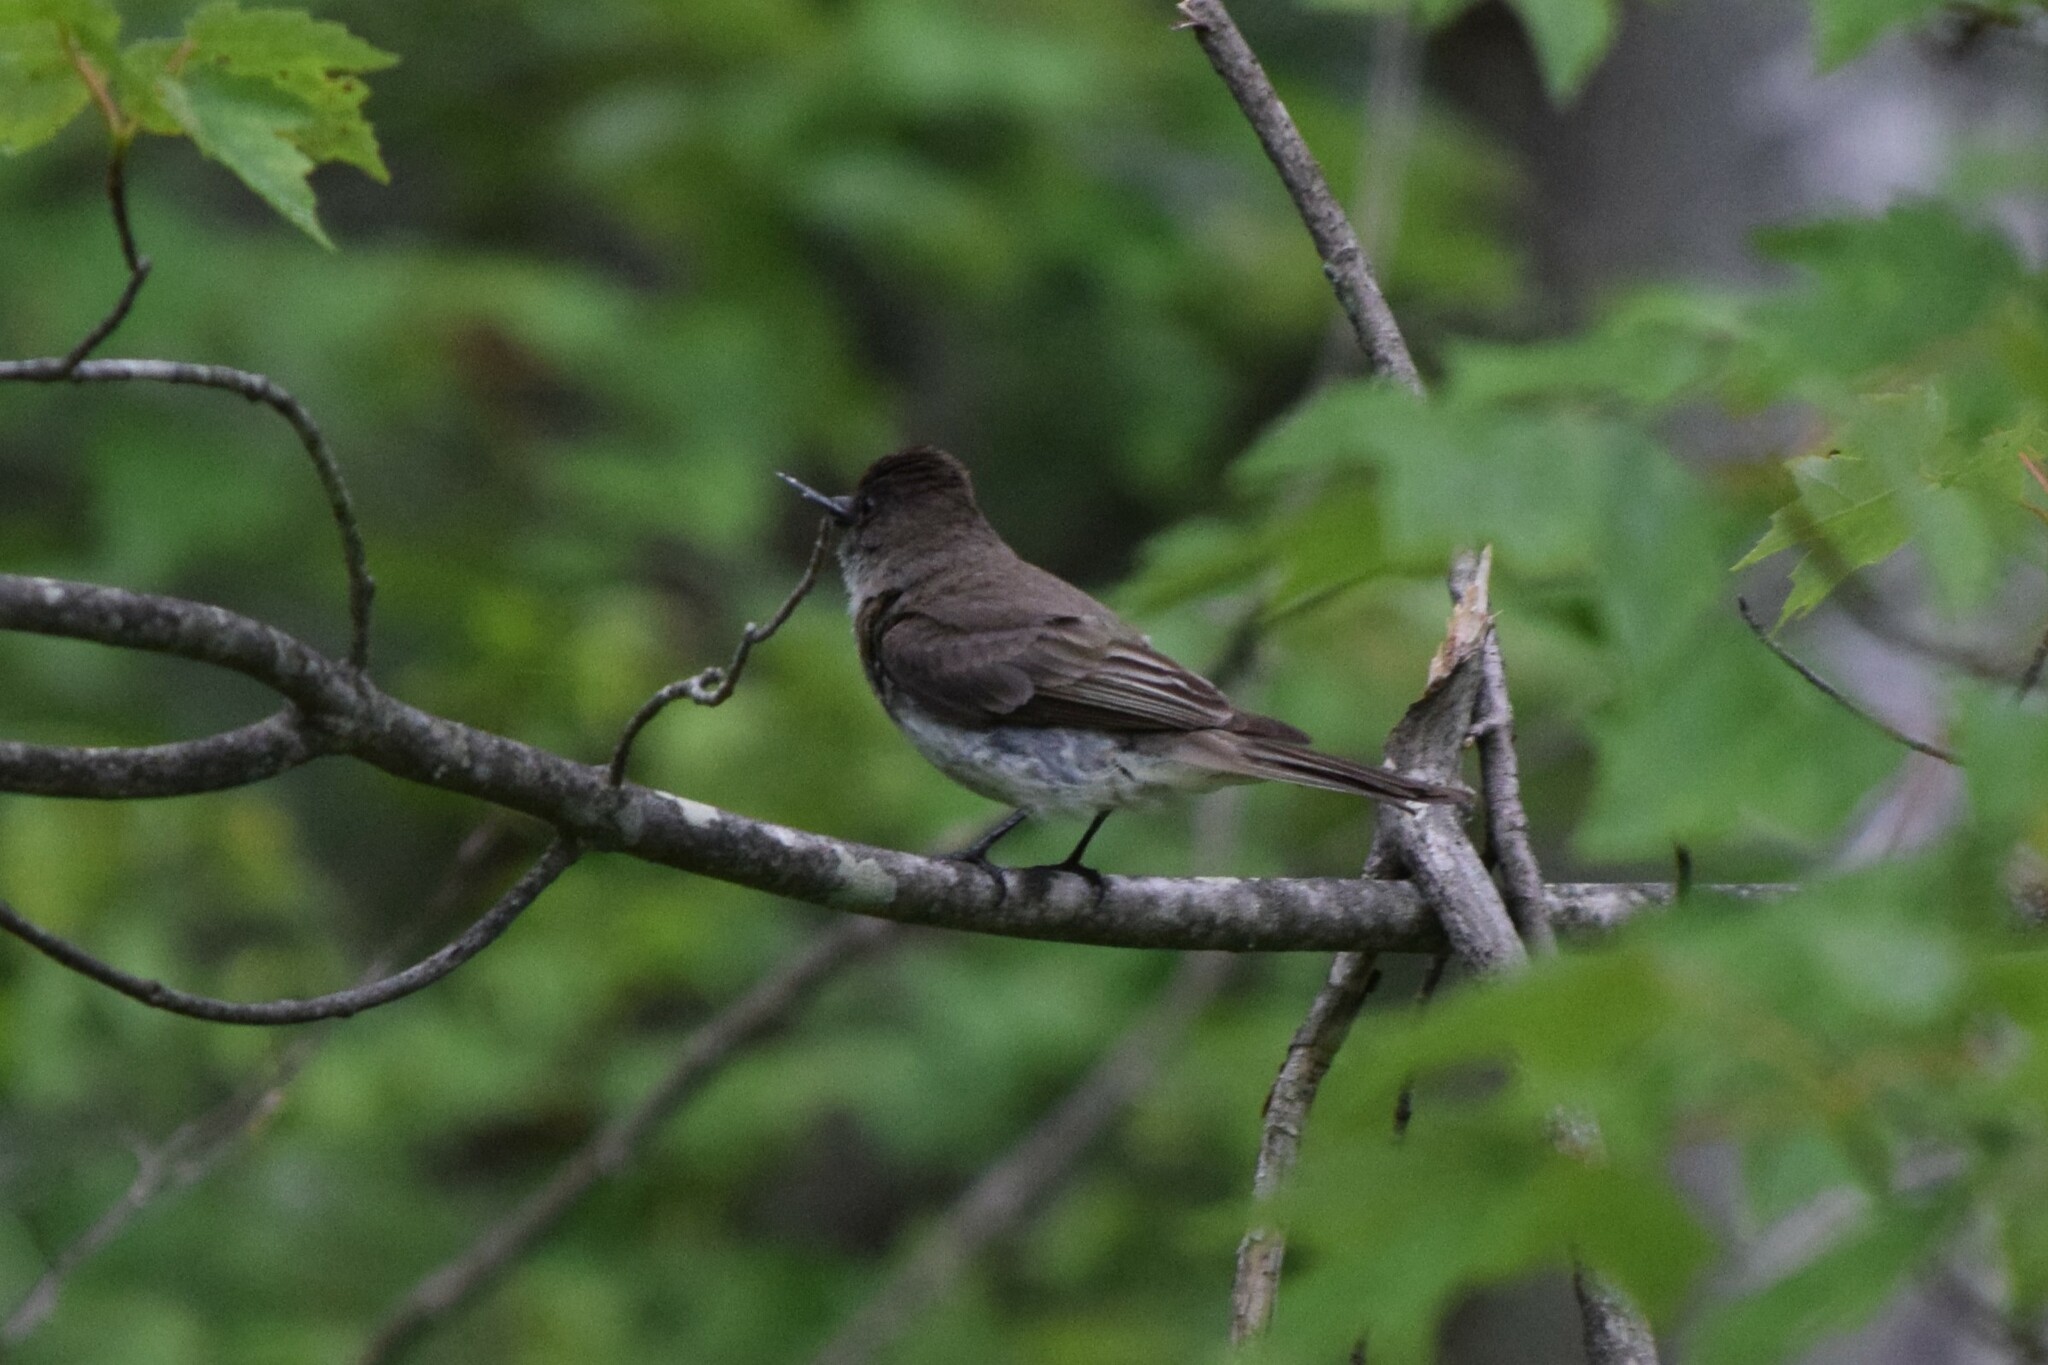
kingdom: Animalia
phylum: Chordata
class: Aves
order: Passeriformes
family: Tyrannidae
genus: Sayornis
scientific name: Sayornis phoebe
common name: Eastern phoebe
